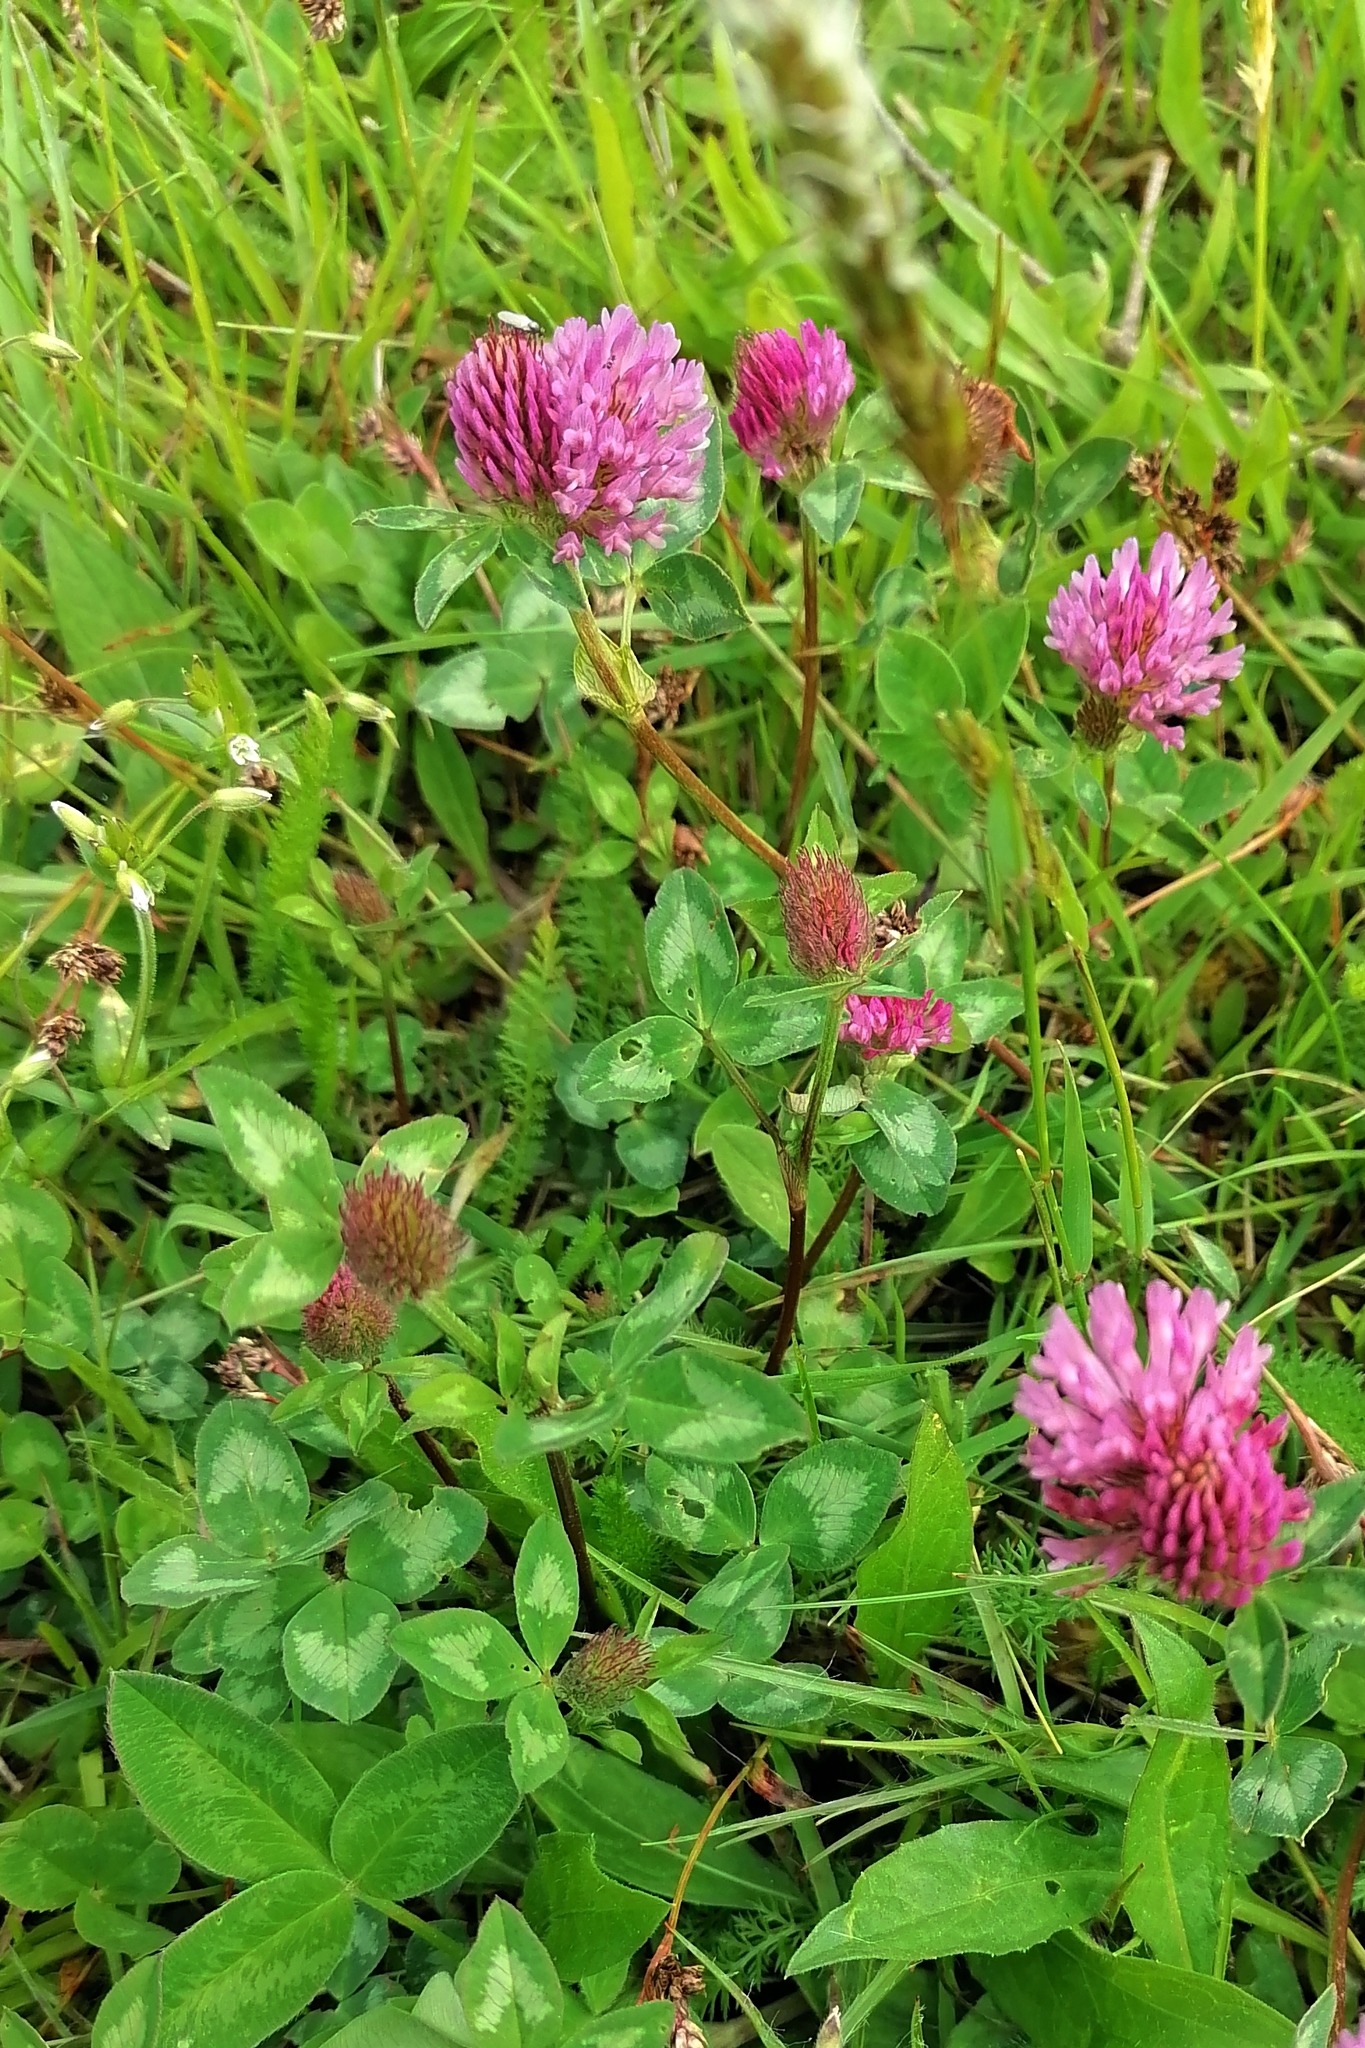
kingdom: Plantae
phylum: Tracheophyta
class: Magnoliopsida
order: Fabales
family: Fabaceae
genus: Trifolium
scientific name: Trifolium pratense
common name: Red clover
